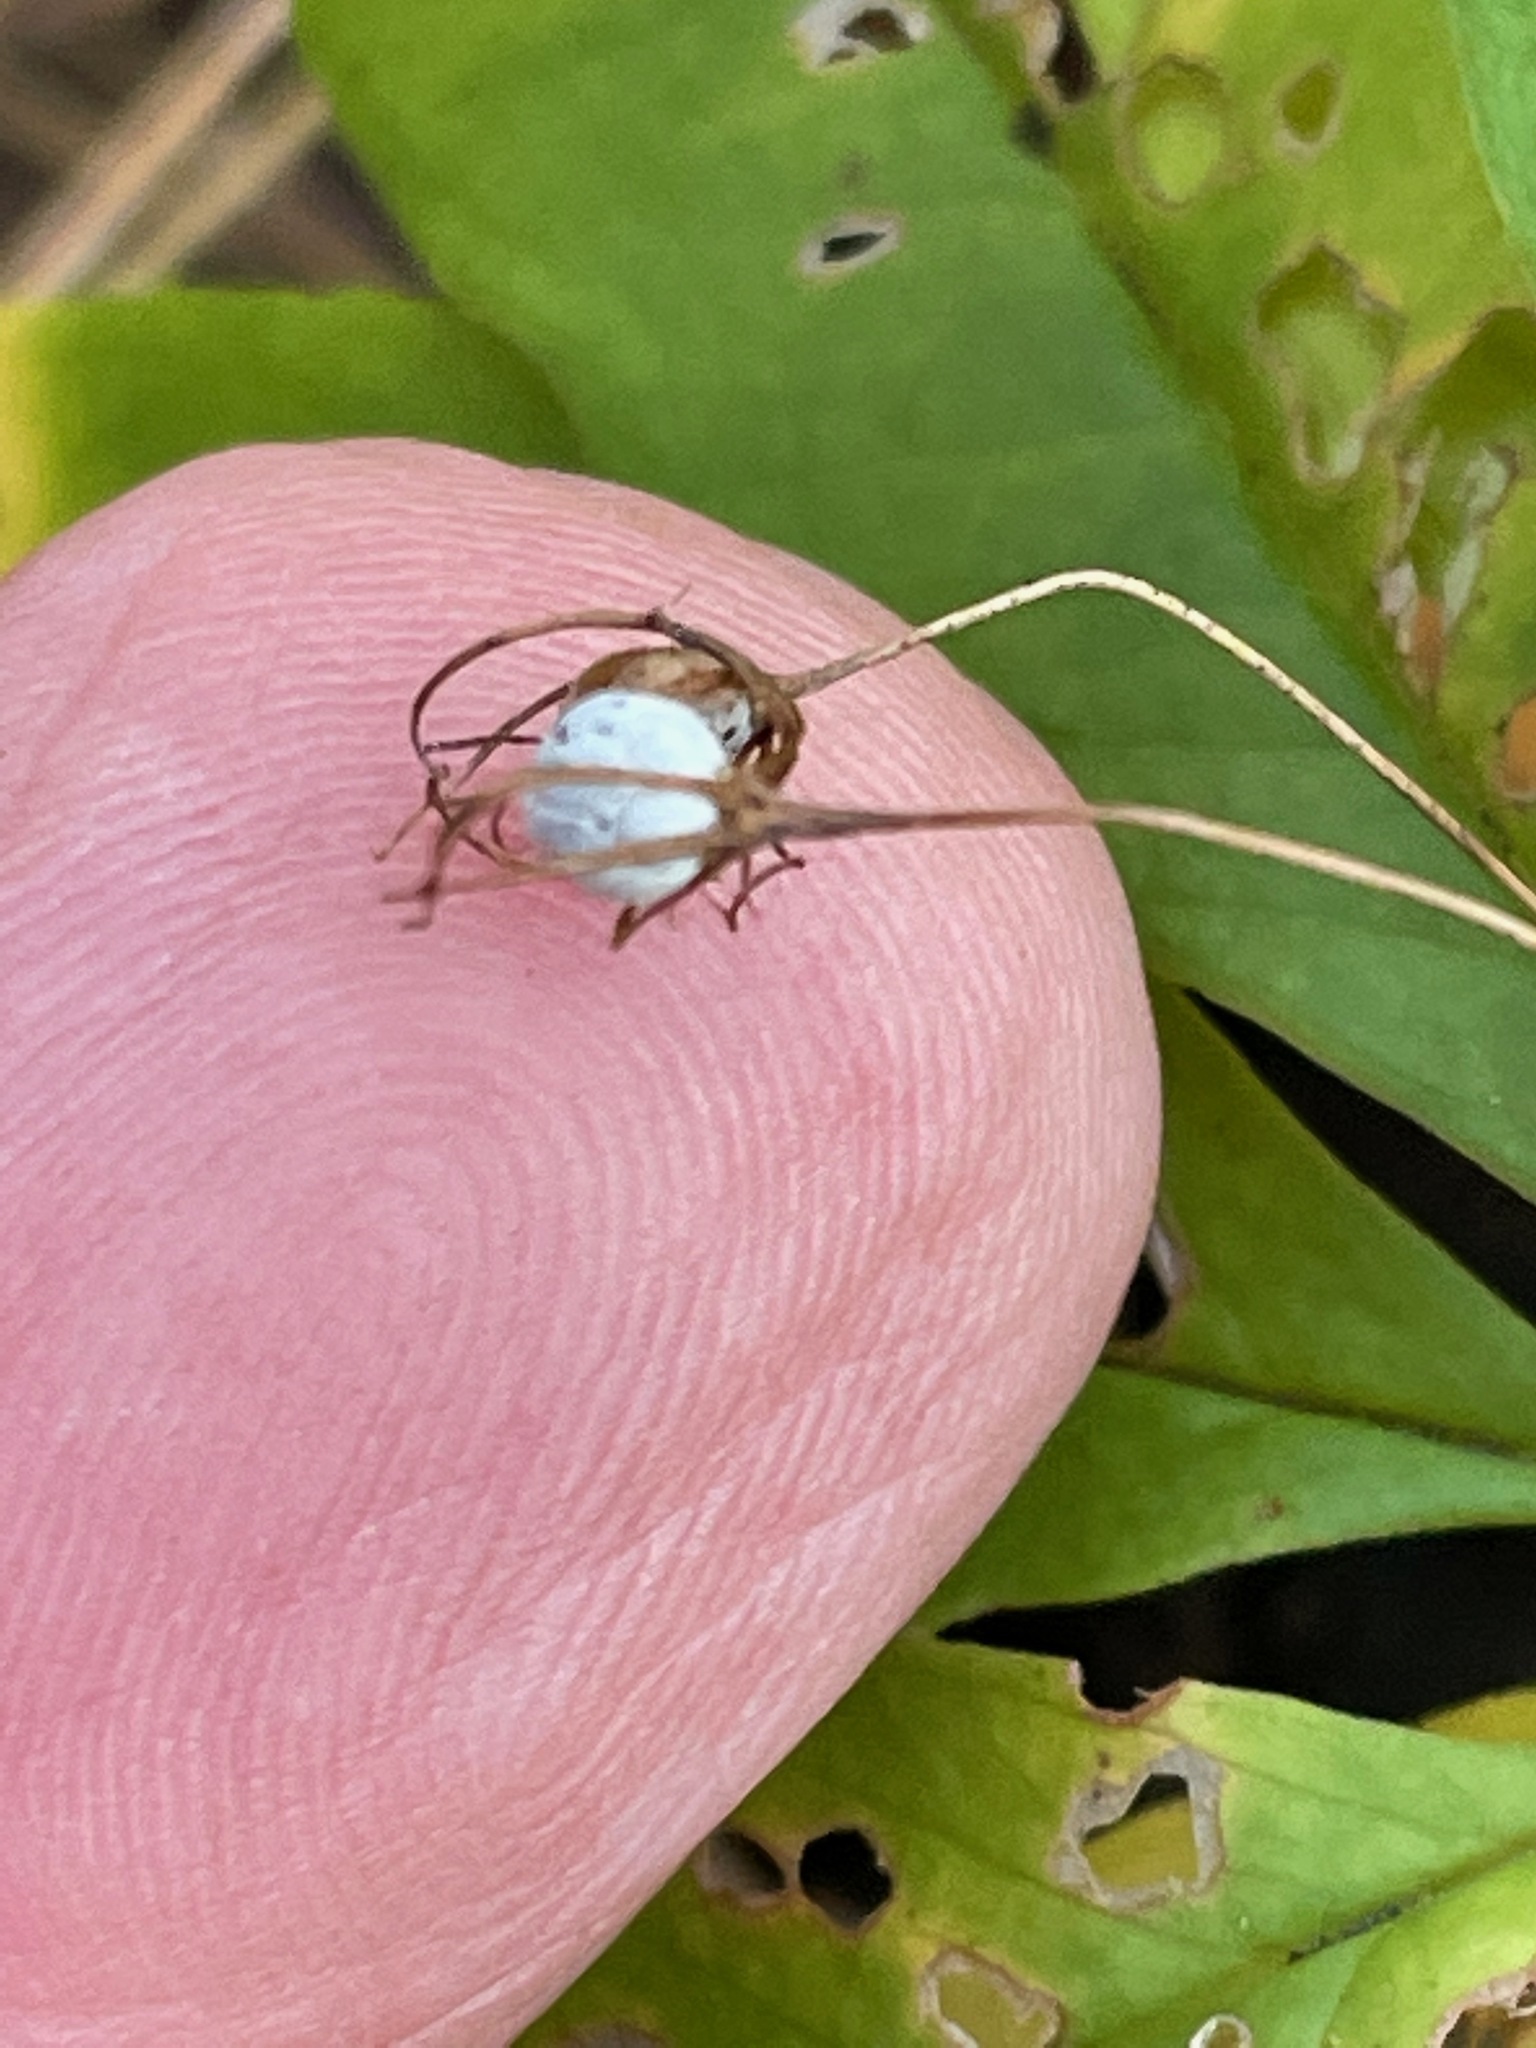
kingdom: Plantae
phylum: Tracheophyta
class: Magnoliopsida
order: Ericales
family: Primulaceae
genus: Lysimachia
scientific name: Lysimachia borealis
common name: American starflower
